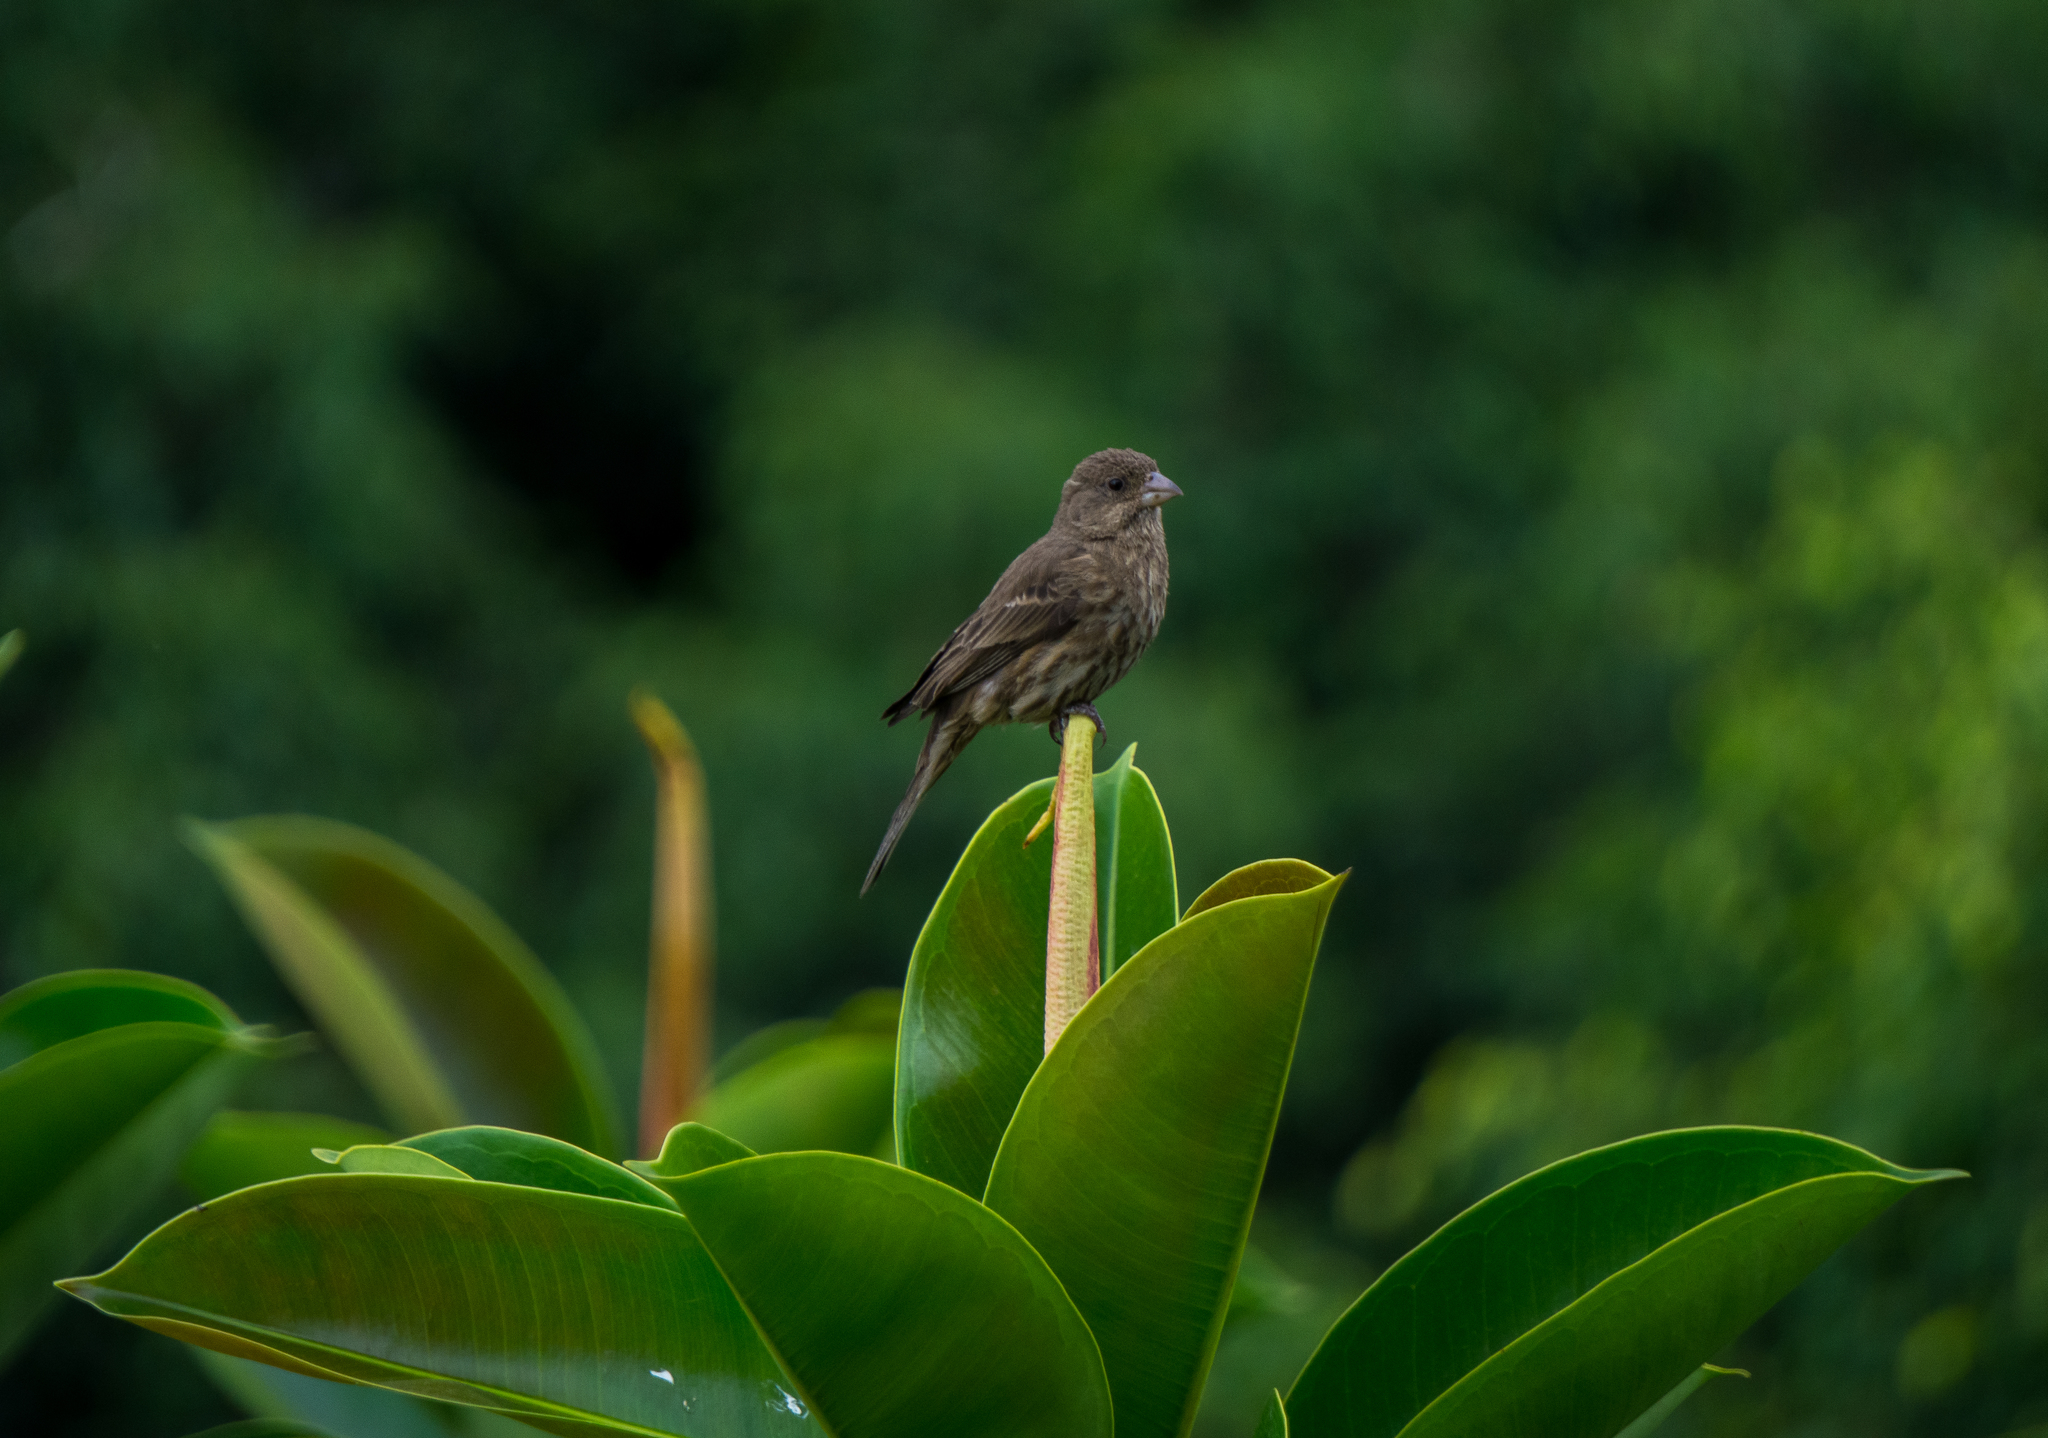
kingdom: Animalia
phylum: Chordata
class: Aves
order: Passeriformes
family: Fringillidae
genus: Haemorhous
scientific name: Haemorhous mexicanus
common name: House finch
